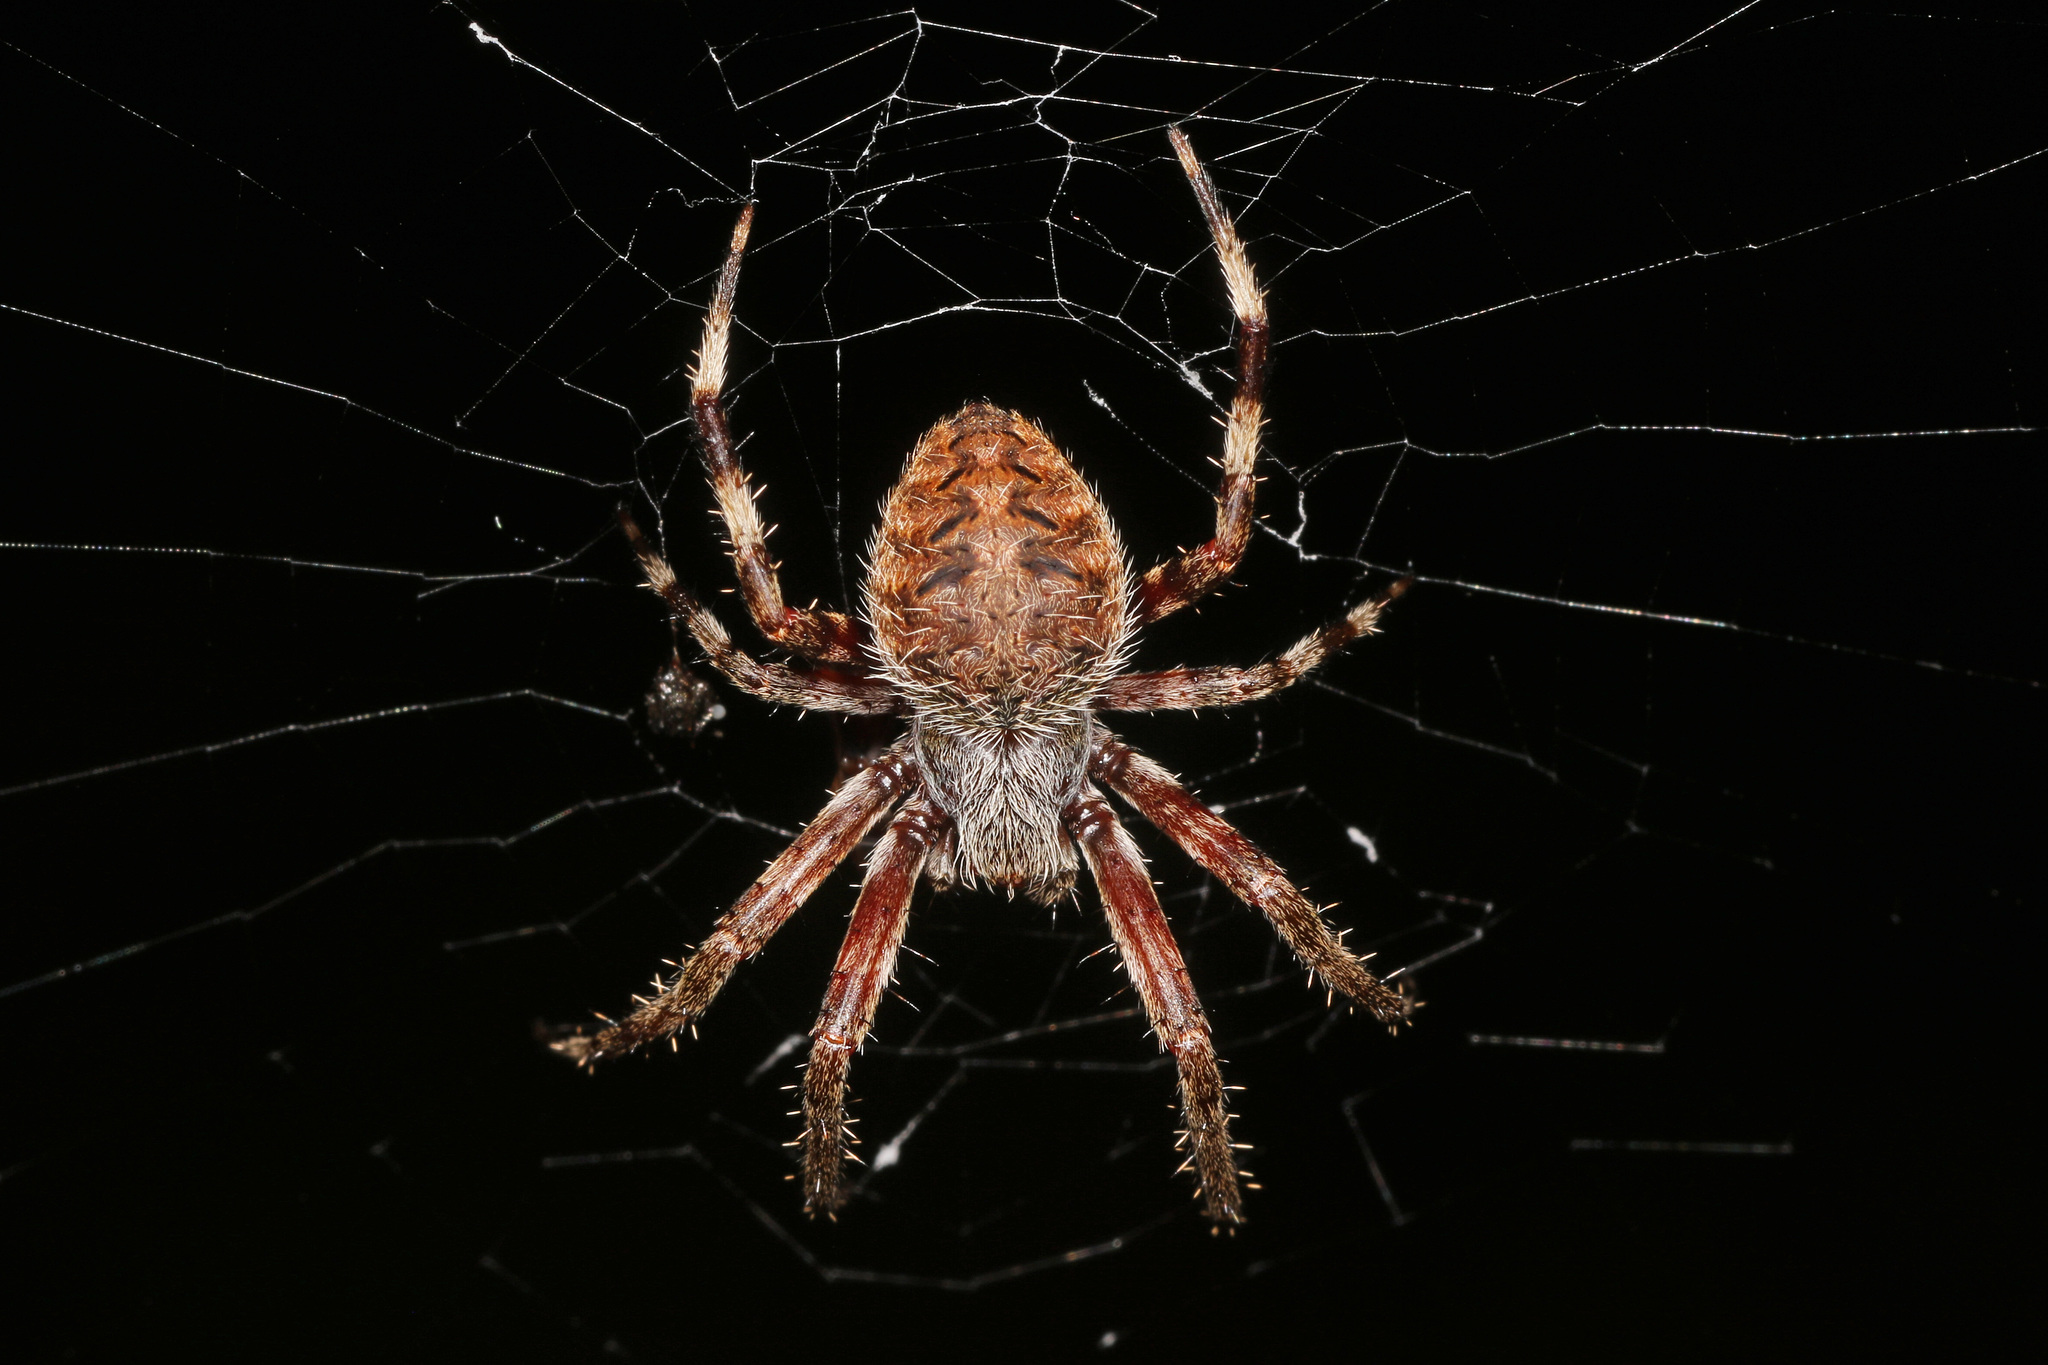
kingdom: Animalia
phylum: Arthropoda
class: Arachnida
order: Araneae
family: Araneidae
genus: Neoscona
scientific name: Neoscona crucifera
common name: Spotted orbweaver
